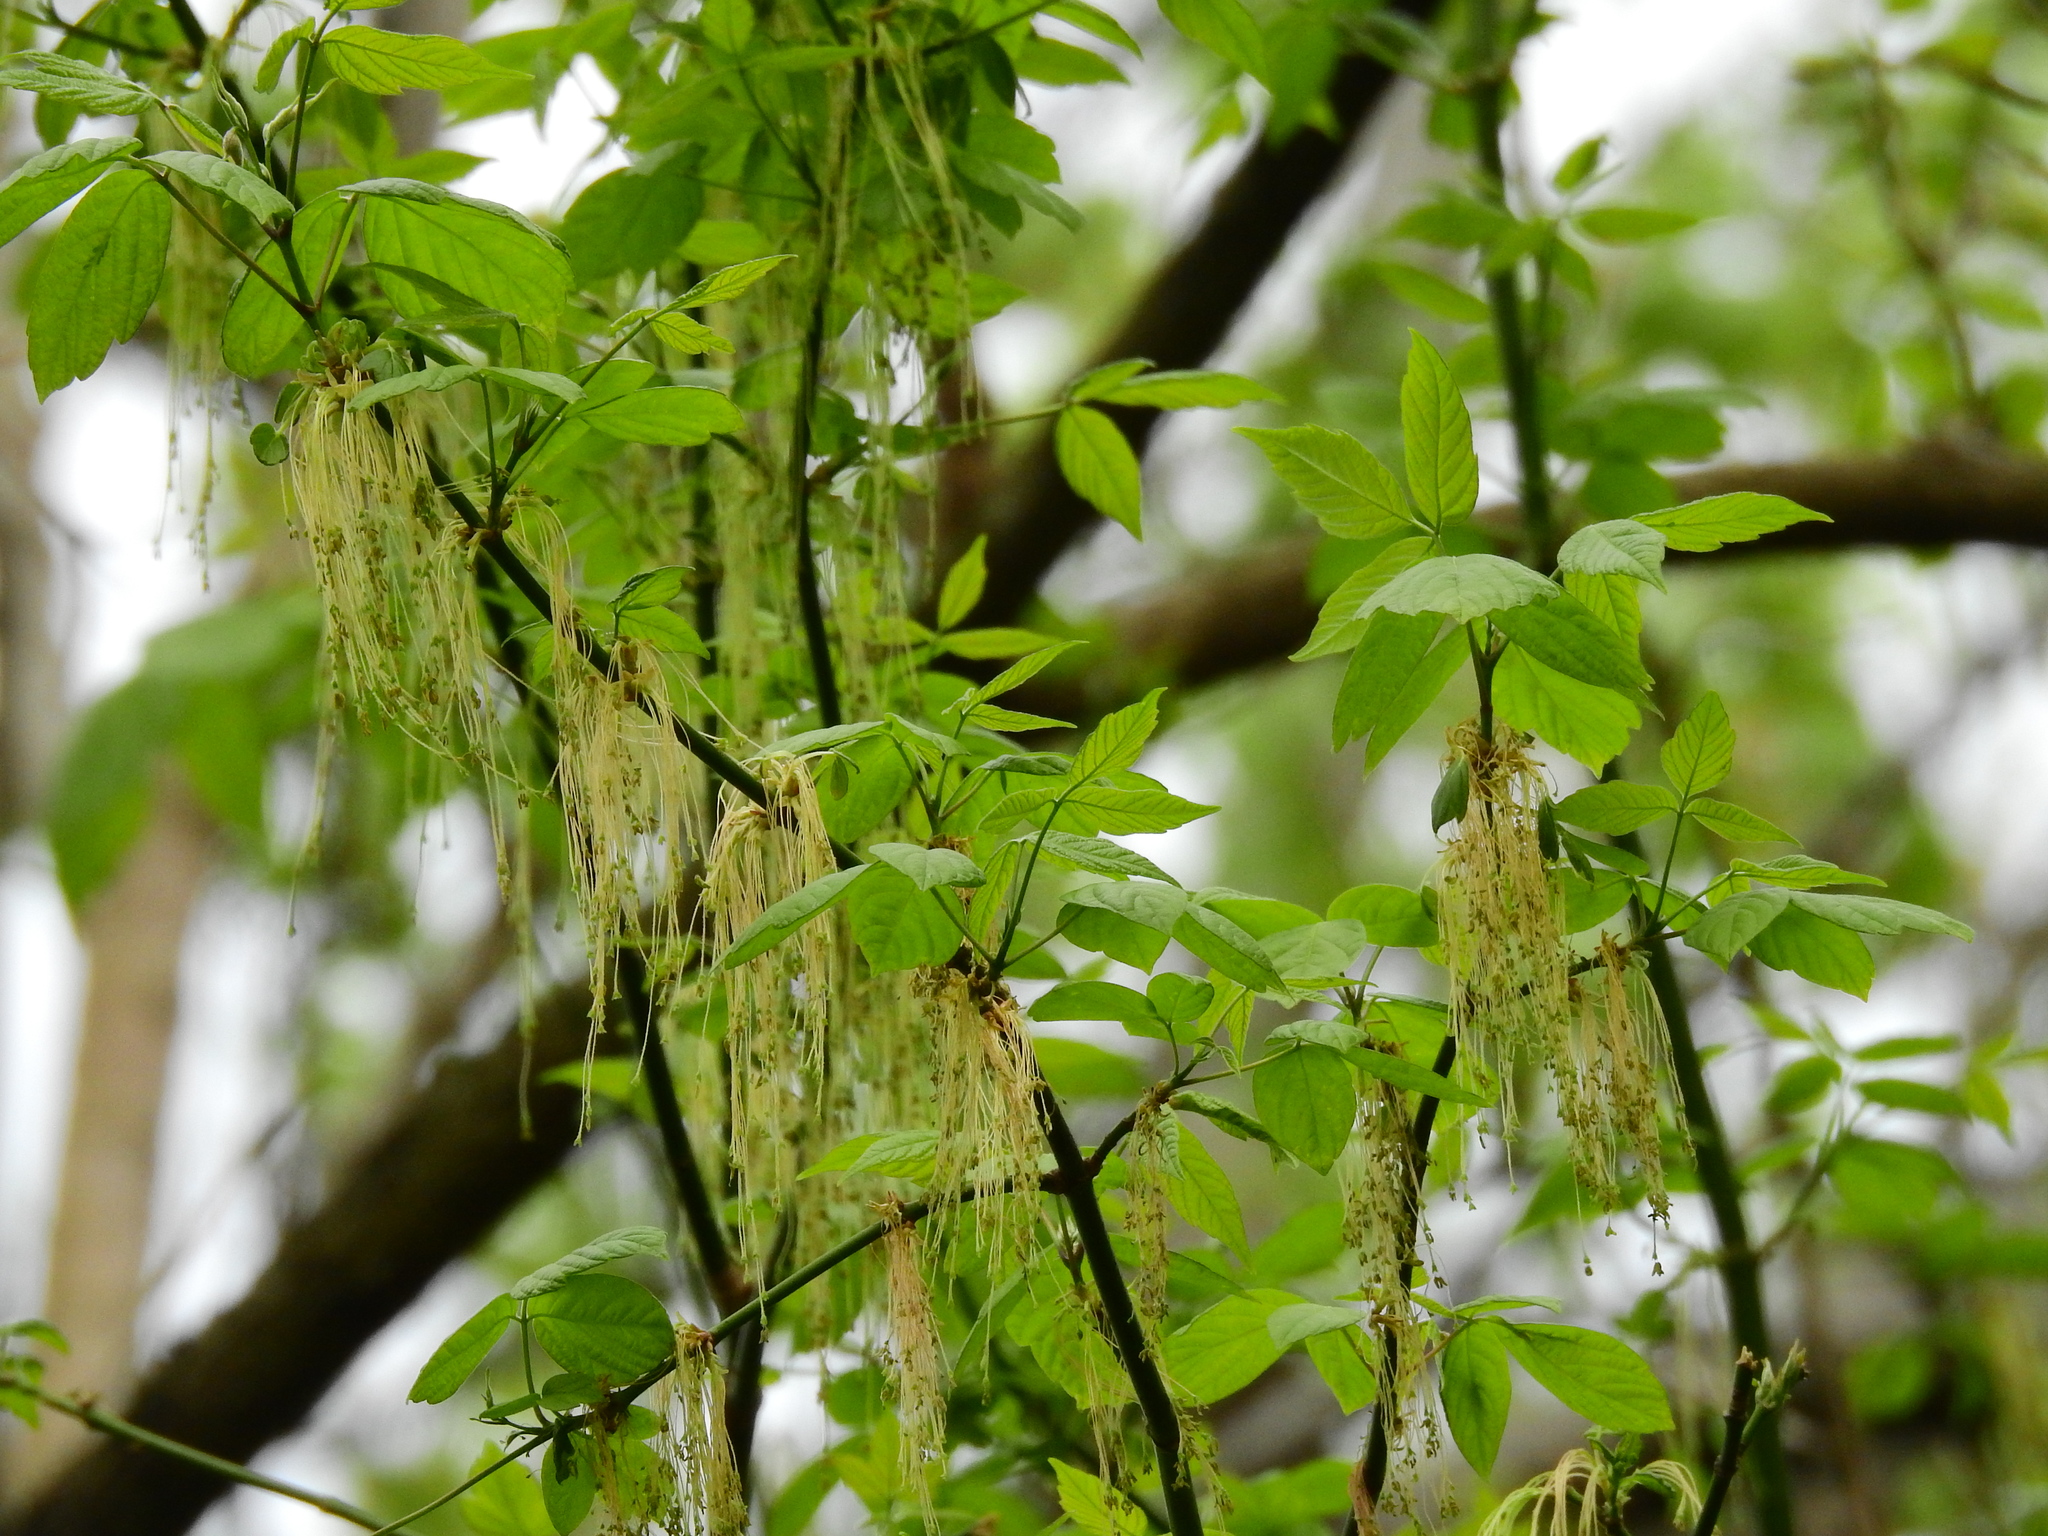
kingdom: Plantae
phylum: Tracheophyta
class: Magnoliopsida
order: Sapindales
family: Sapindaceae
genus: Acer
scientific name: Acer negundo
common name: Ashleaf maple
